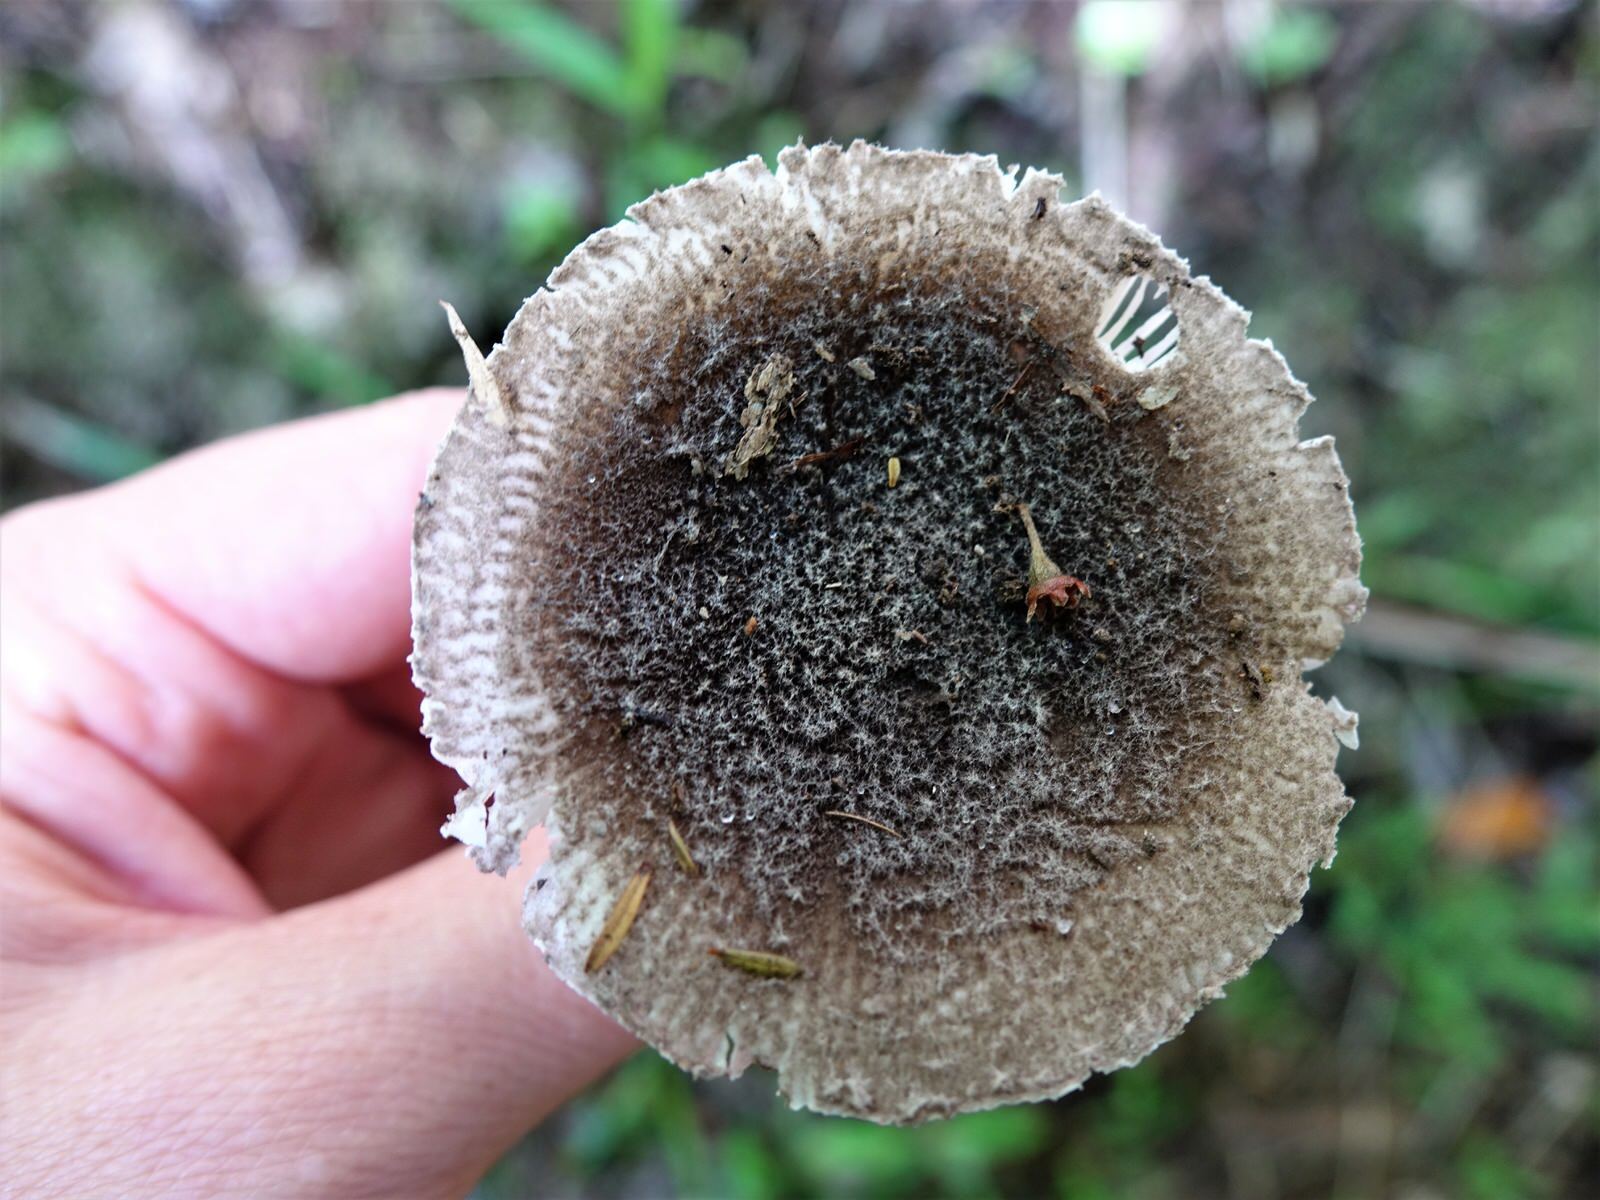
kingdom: Fungi
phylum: Basidiomycota
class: Agaricomycetes
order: Agaricales
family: Amanitaceae
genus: Amanita
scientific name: Amanita nehuta
